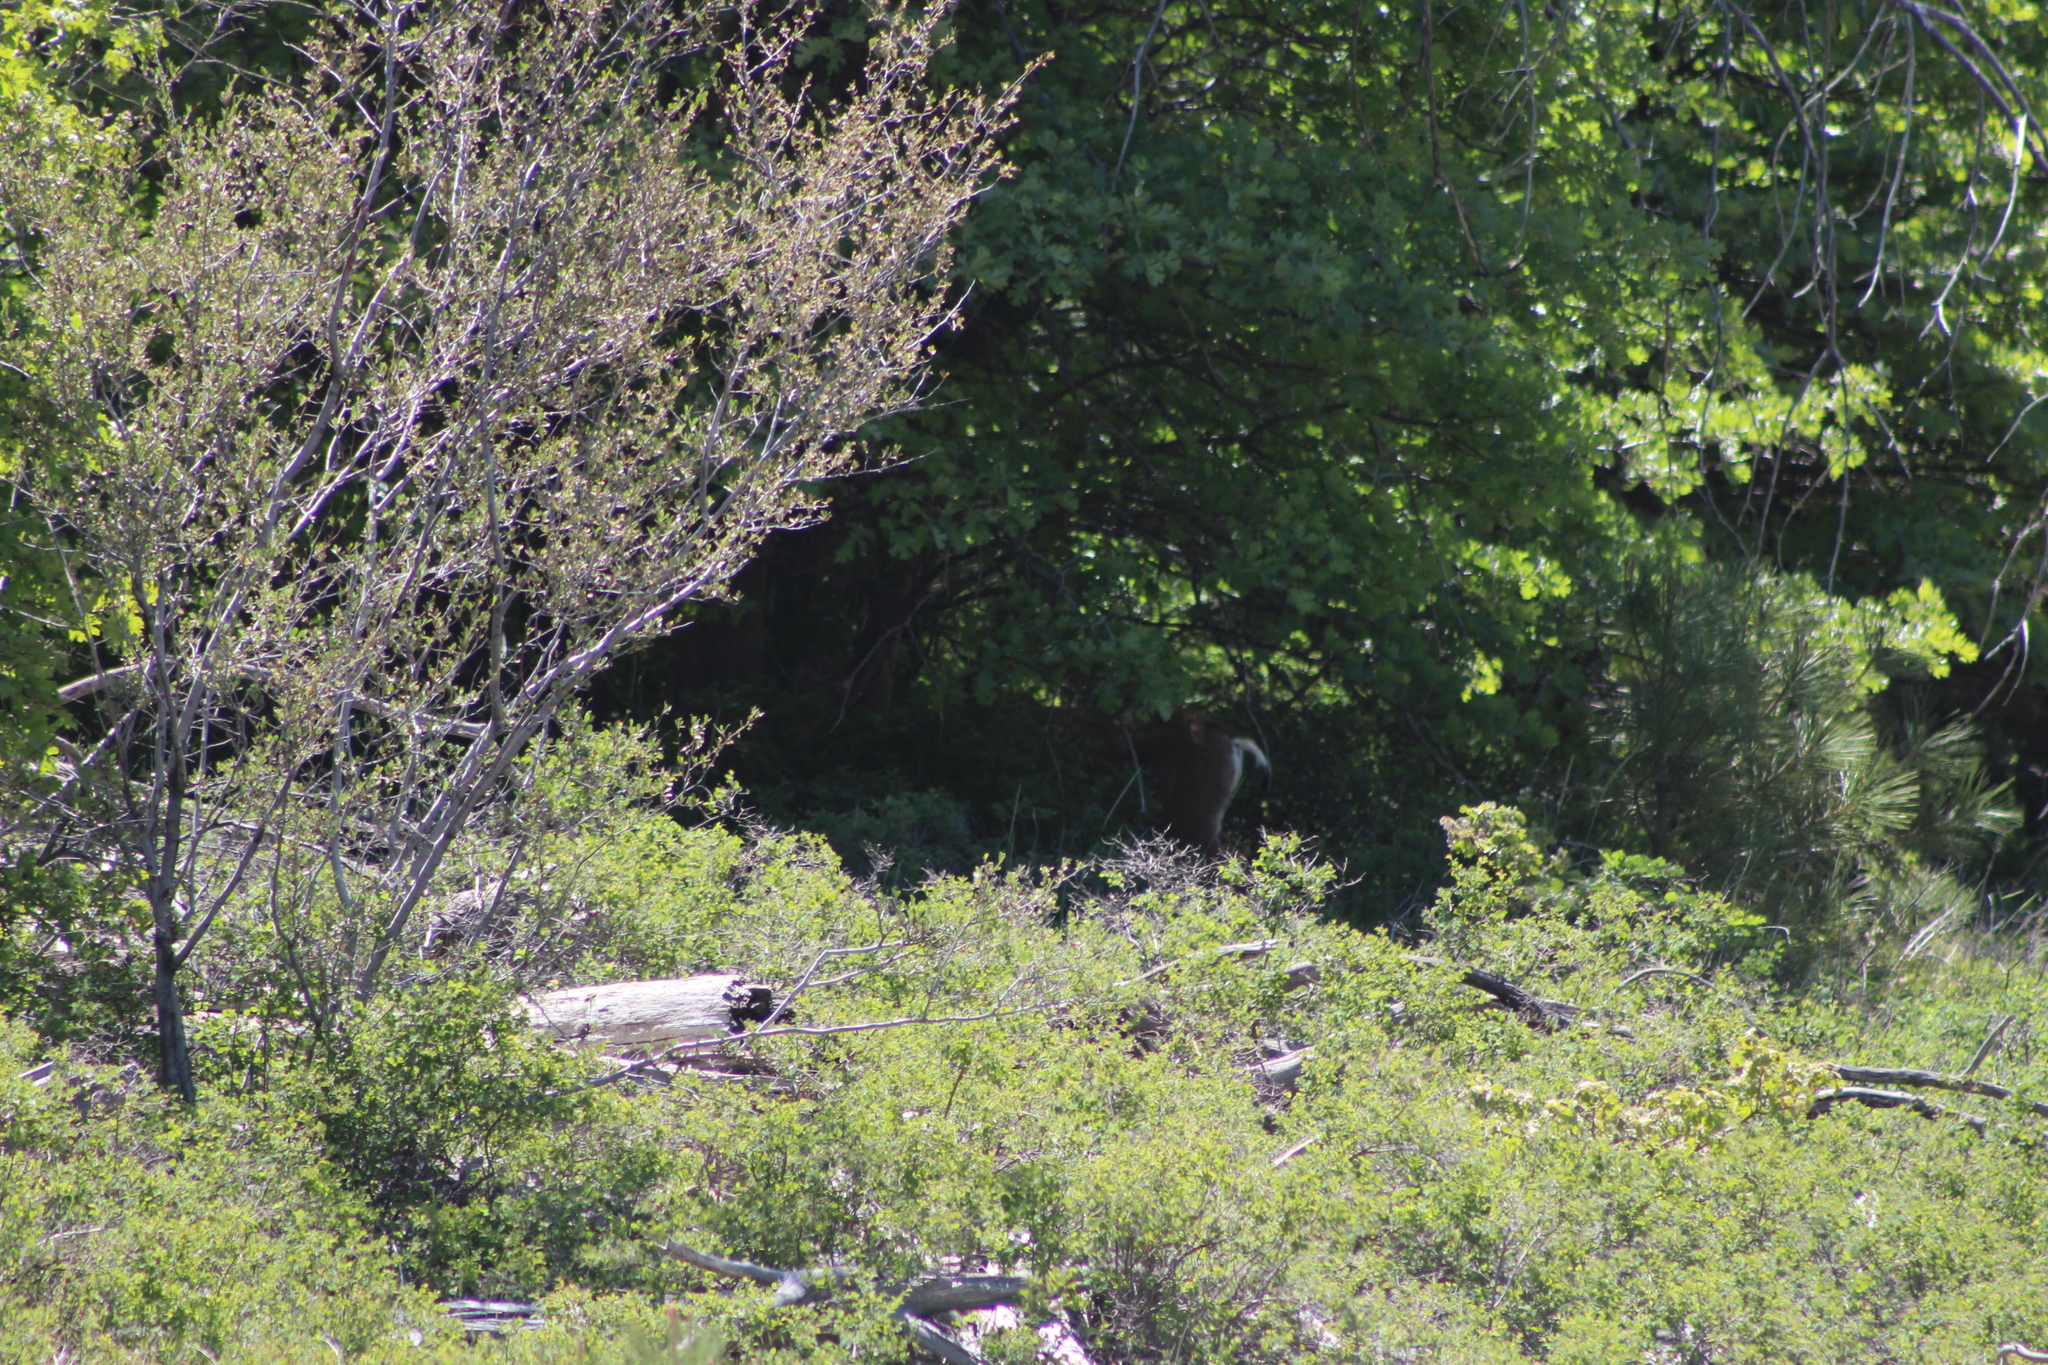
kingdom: Animalia
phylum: Chordata
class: Mammalia
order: Artiodactyla
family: Cervidae
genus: Odocoileus
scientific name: Odocoileus hemionus
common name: Mule deer
